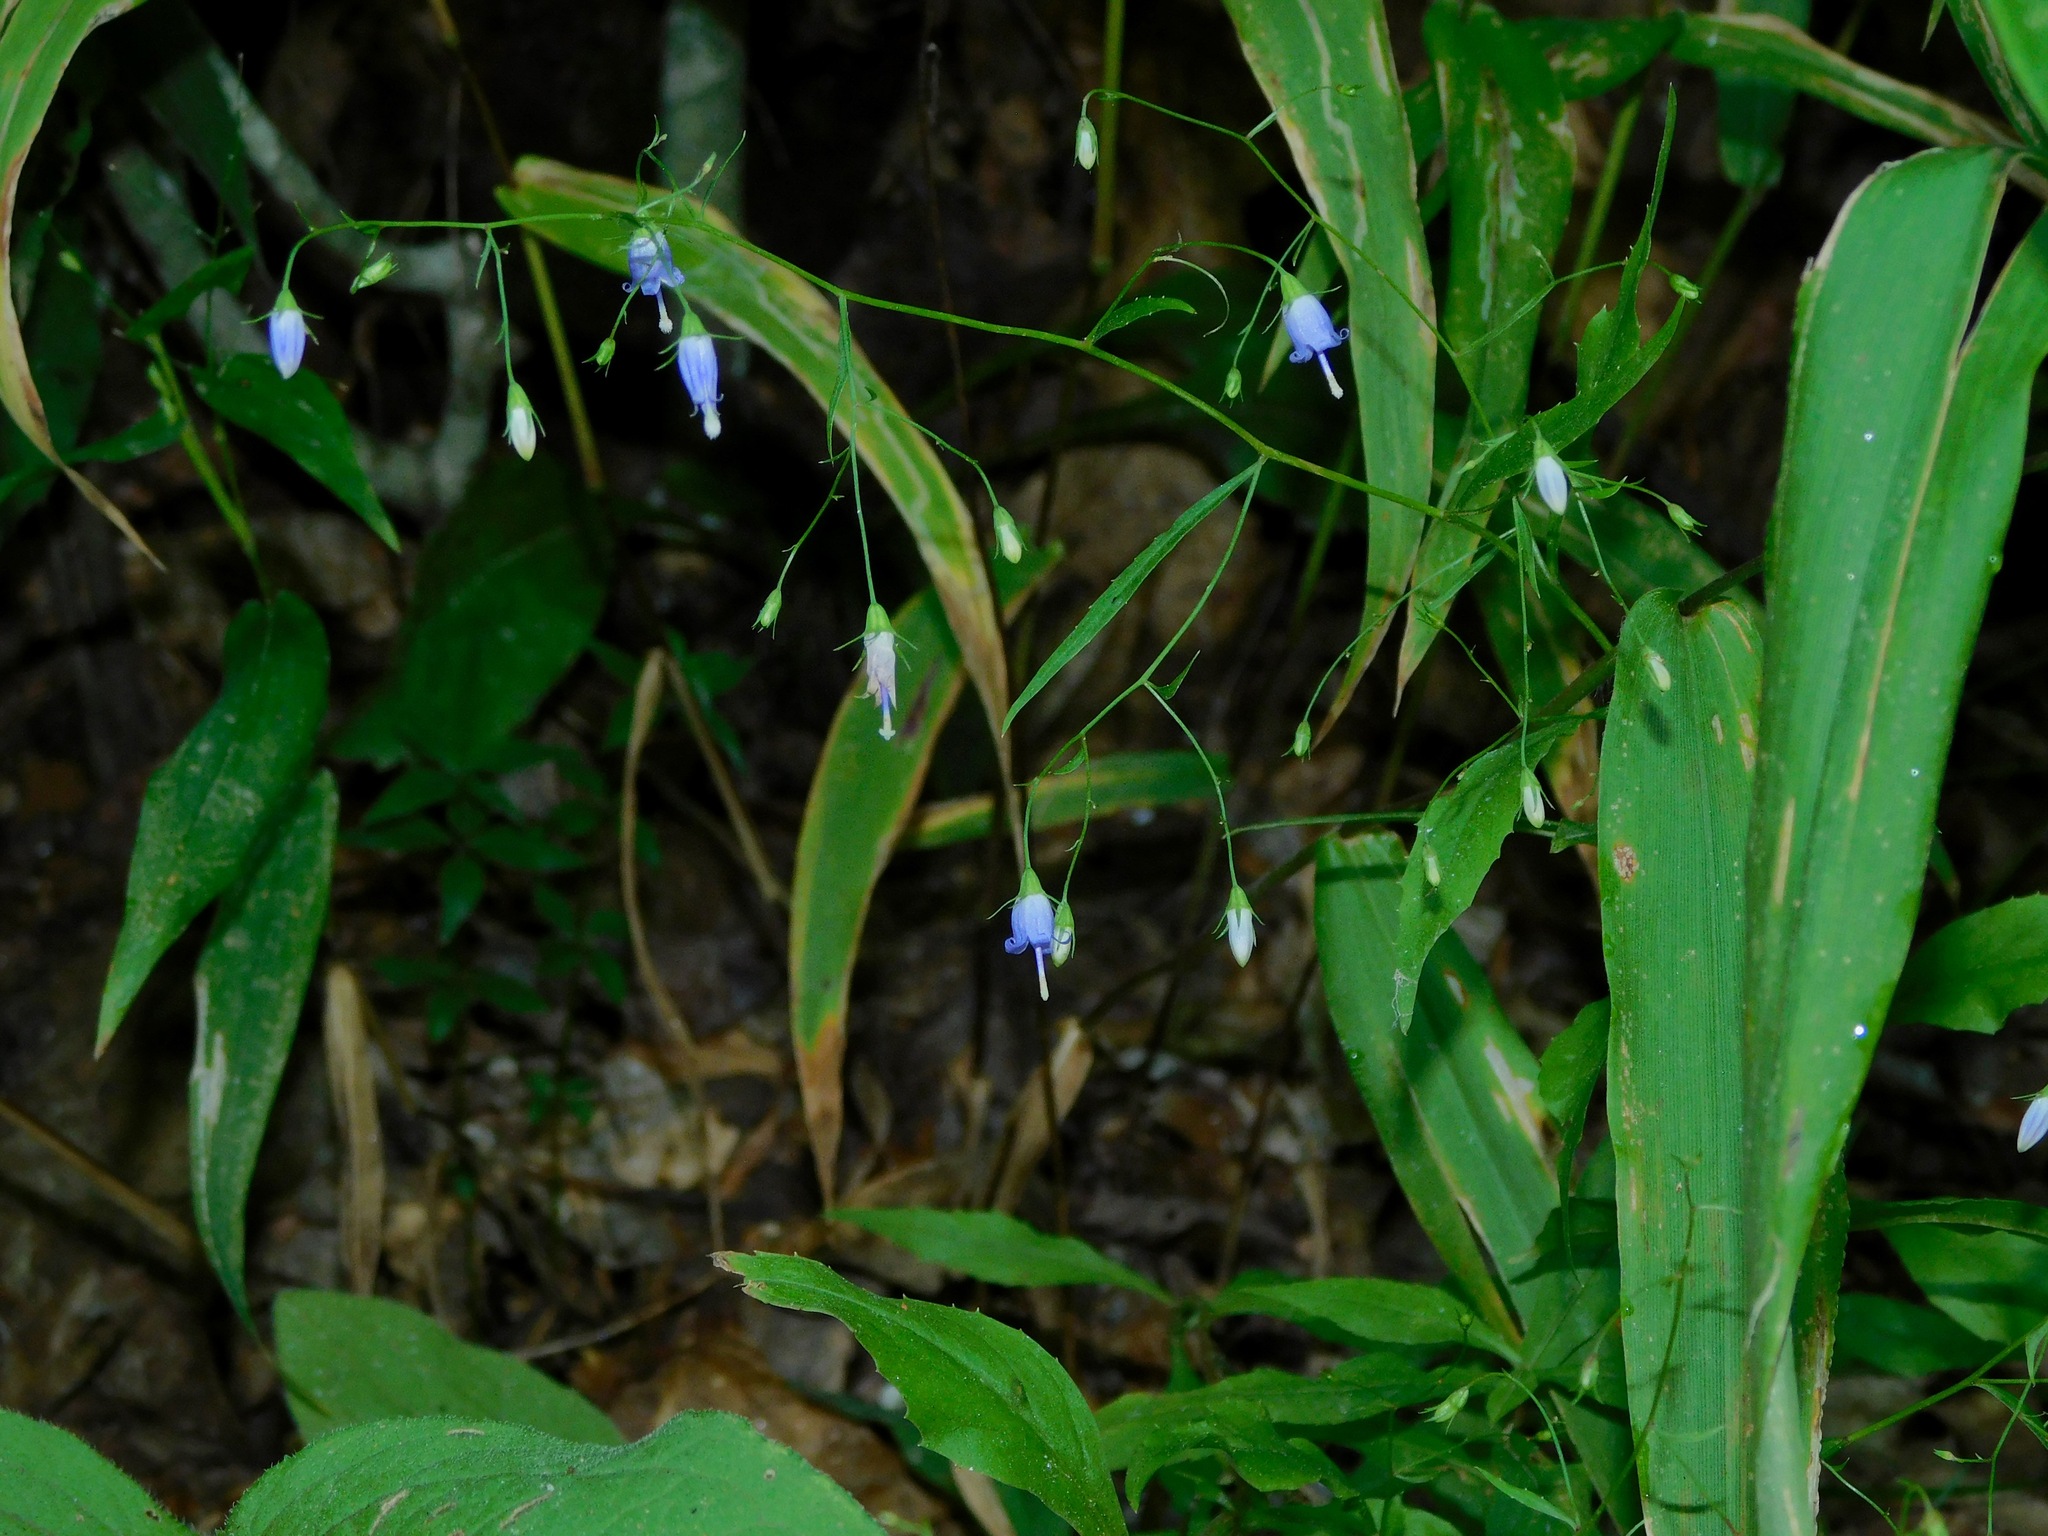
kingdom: Plantae
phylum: Tracheophyta
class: Magnoliopsida
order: Asterales
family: Campanulaceae
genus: Campanula
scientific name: Campanula divaricata
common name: Appalachian bellflower
